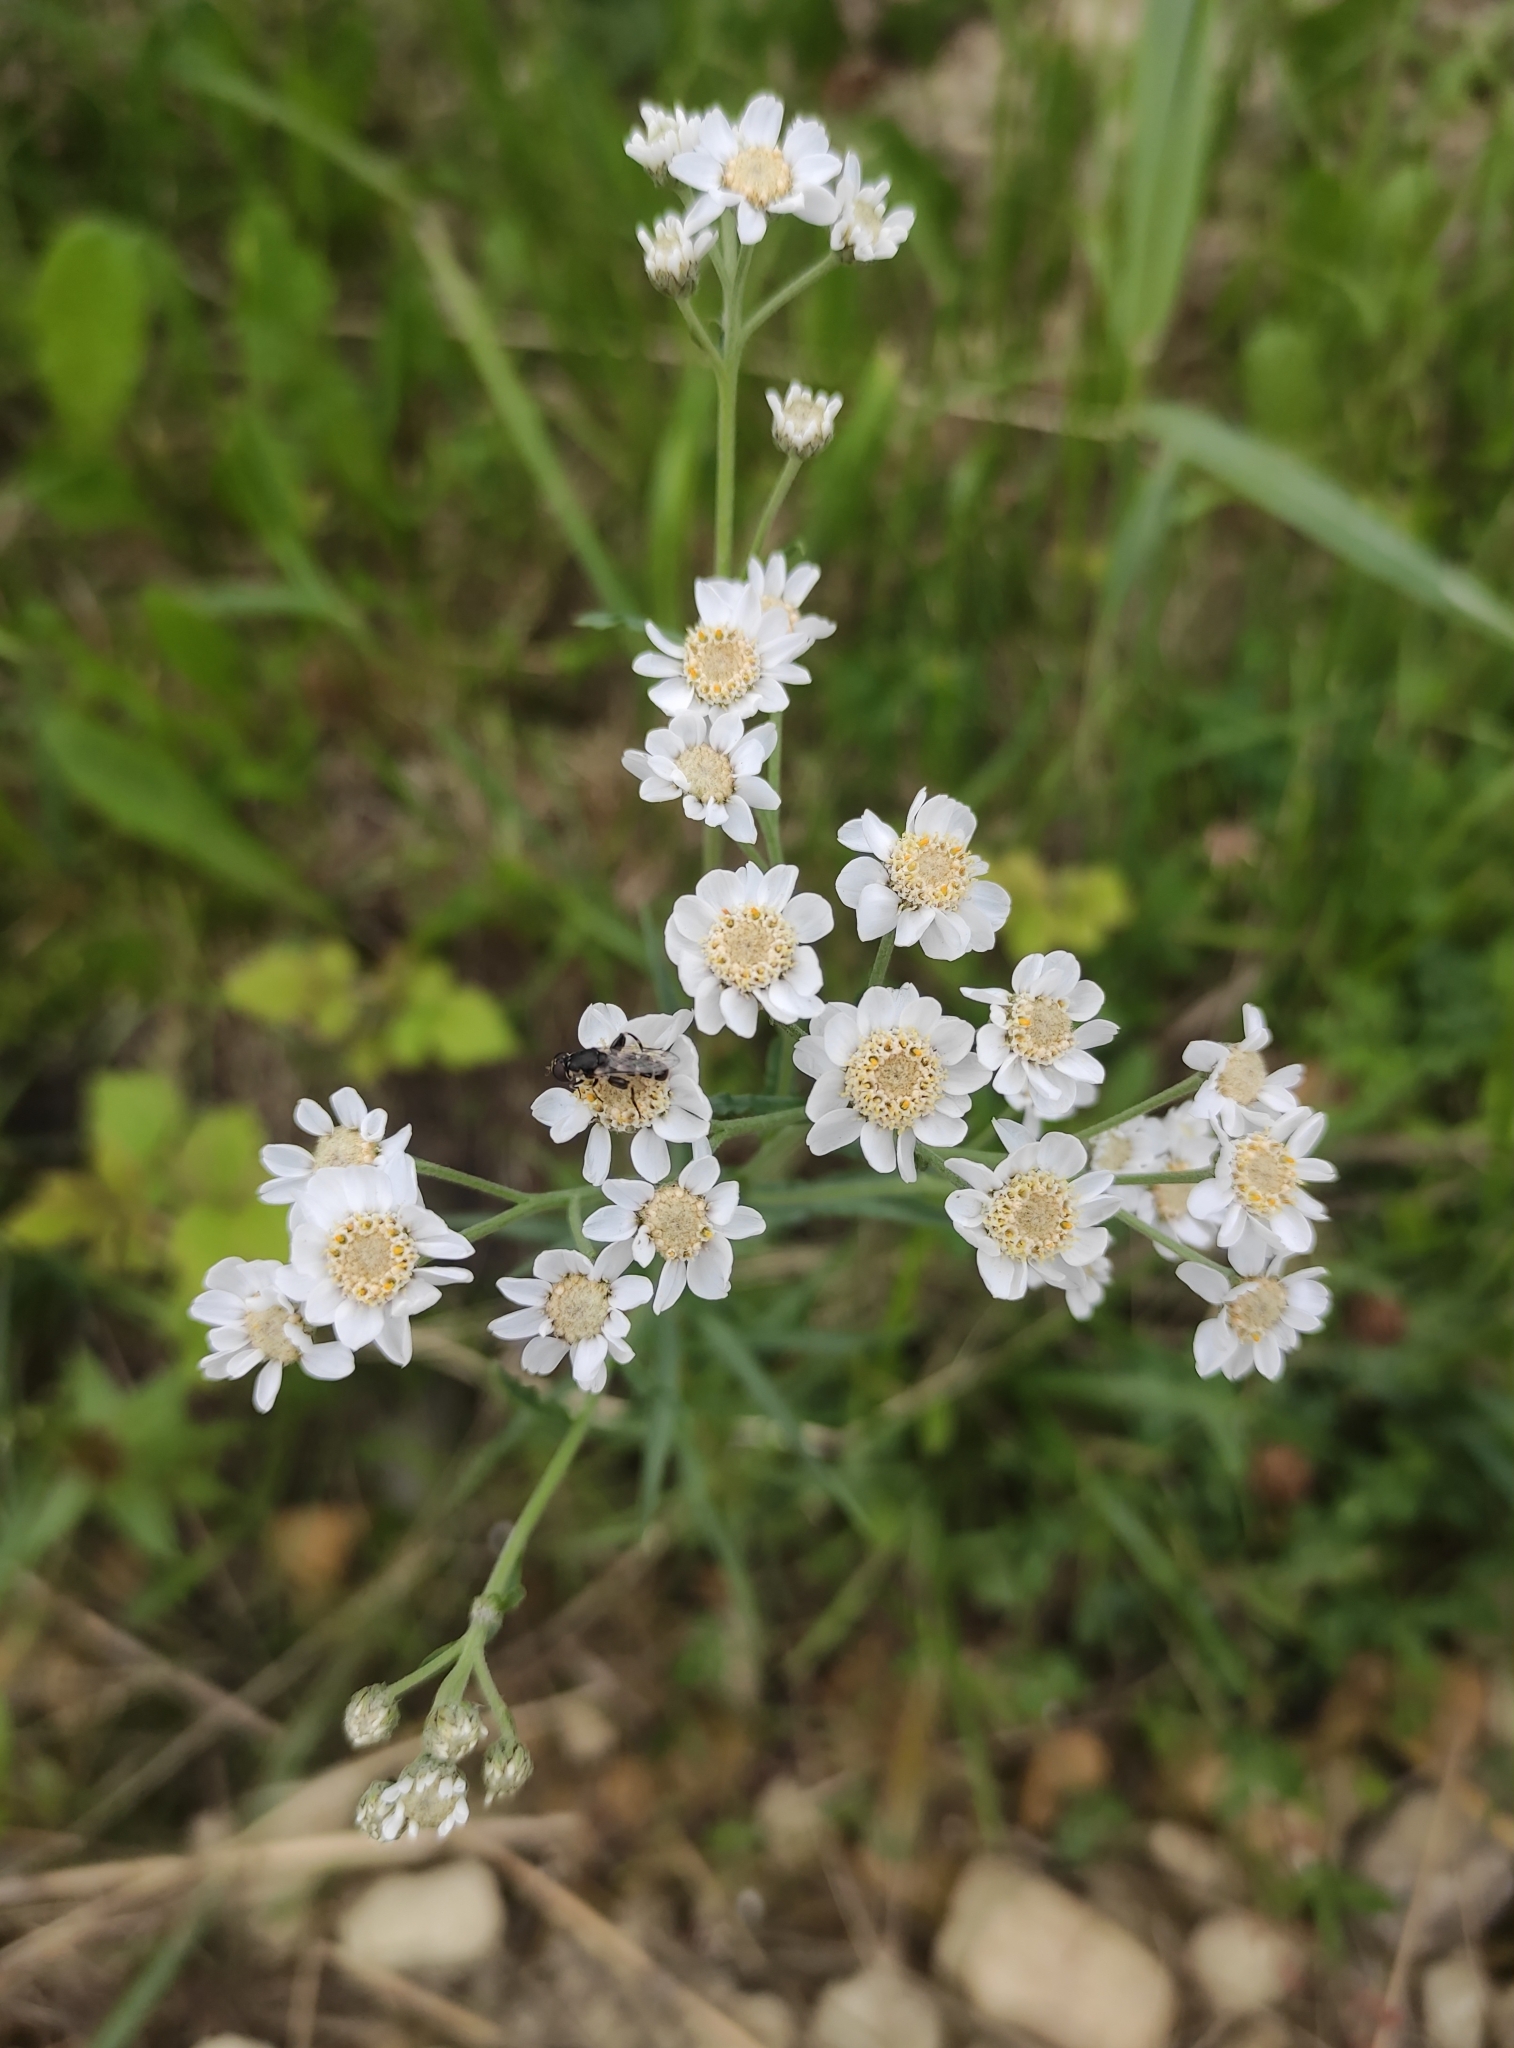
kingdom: Plantae
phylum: Tracheophyta
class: Magnoliopsida
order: Asterales
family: Asteraceae
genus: Achillea
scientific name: Achillea ptarmica
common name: Sneezeweed
